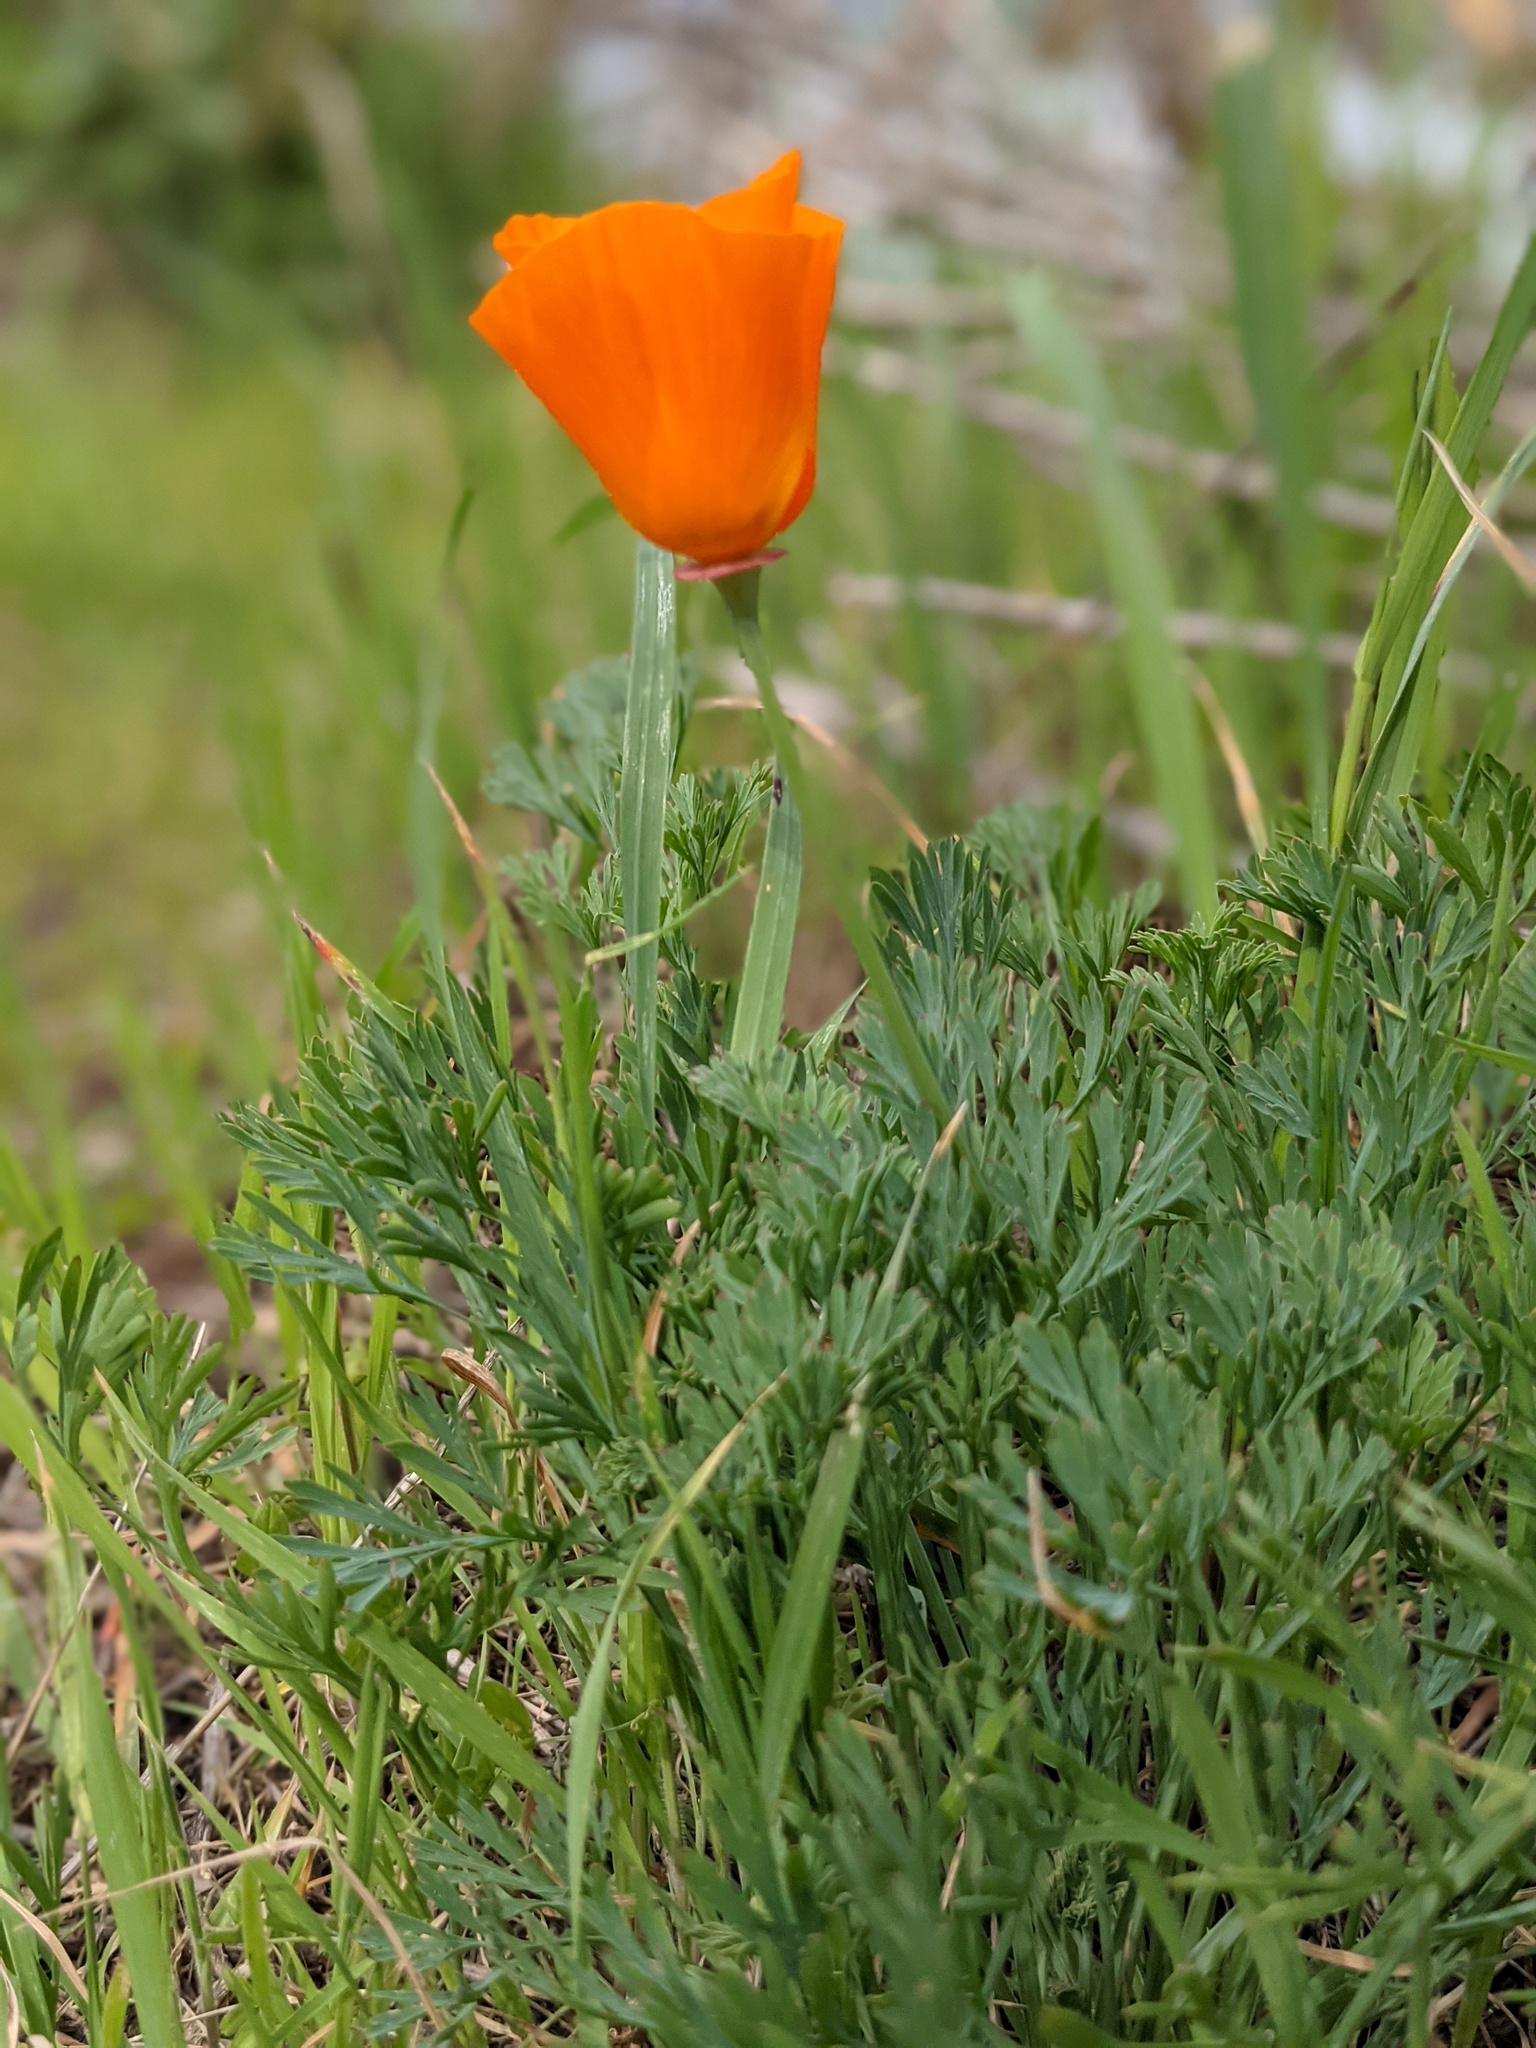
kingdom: Plantae
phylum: Tracheophyta
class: Magnoliopsida
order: Ranunculales
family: Papaveraceae
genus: Eschscholzia
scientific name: Eschscholzia californica
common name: California poppy
